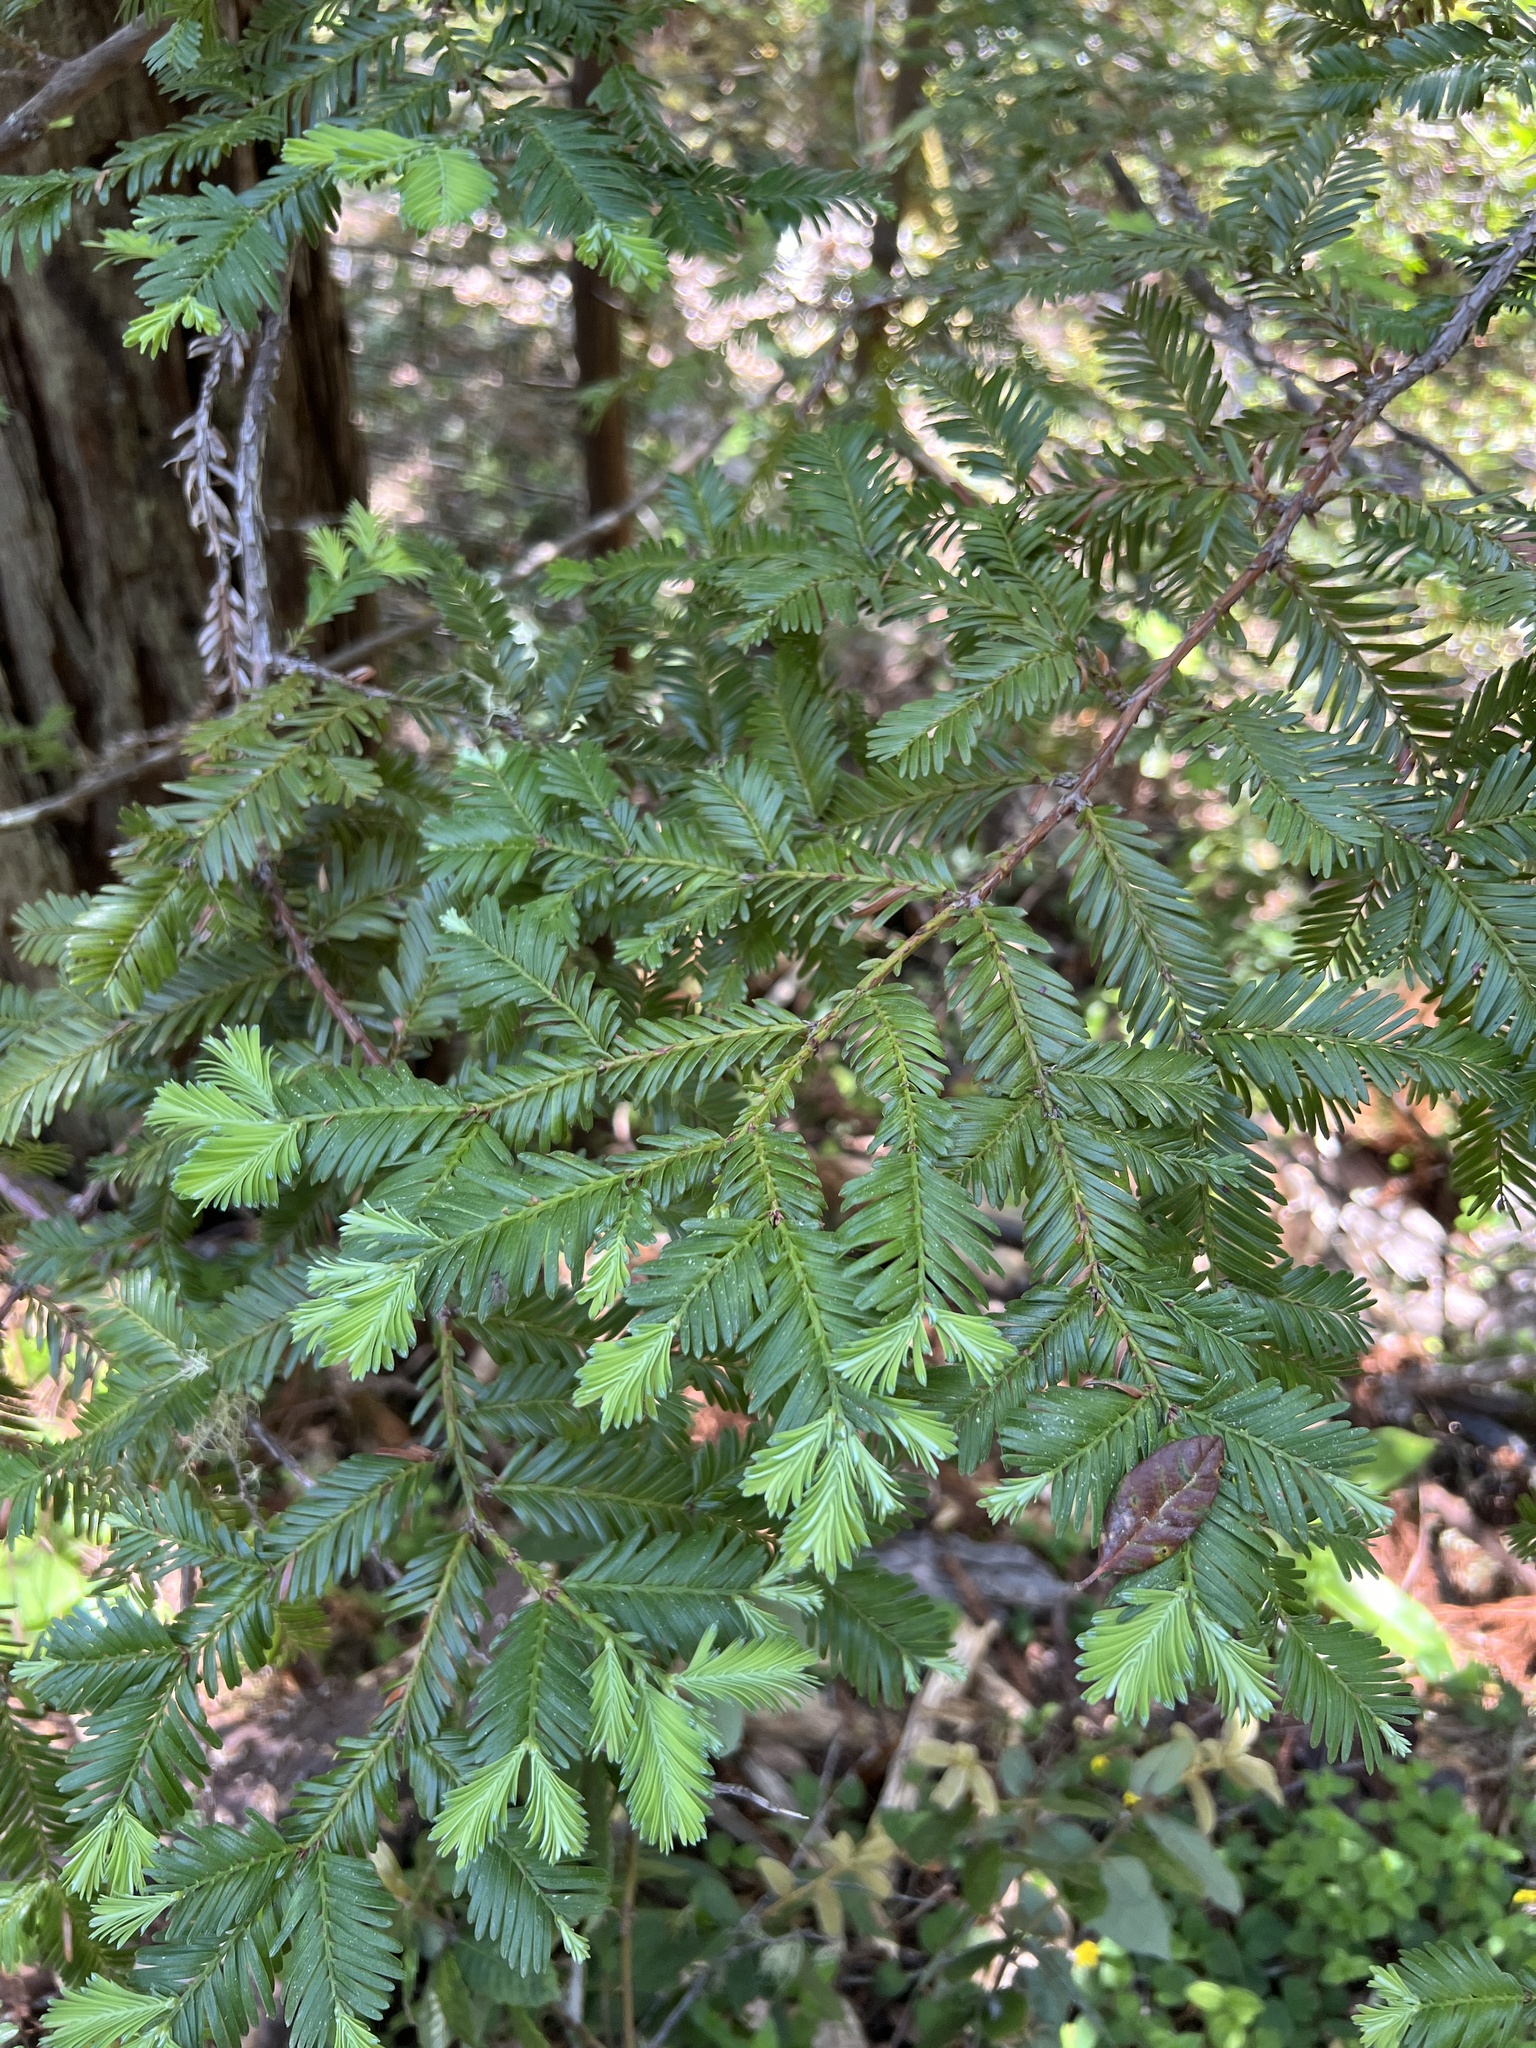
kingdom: Plantae
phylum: Tracheophyta
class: Pinopsida
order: Pinales
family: Cupressaceae
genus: Sequoia
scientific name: Sequoia sempervirens
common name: Coast redwood
